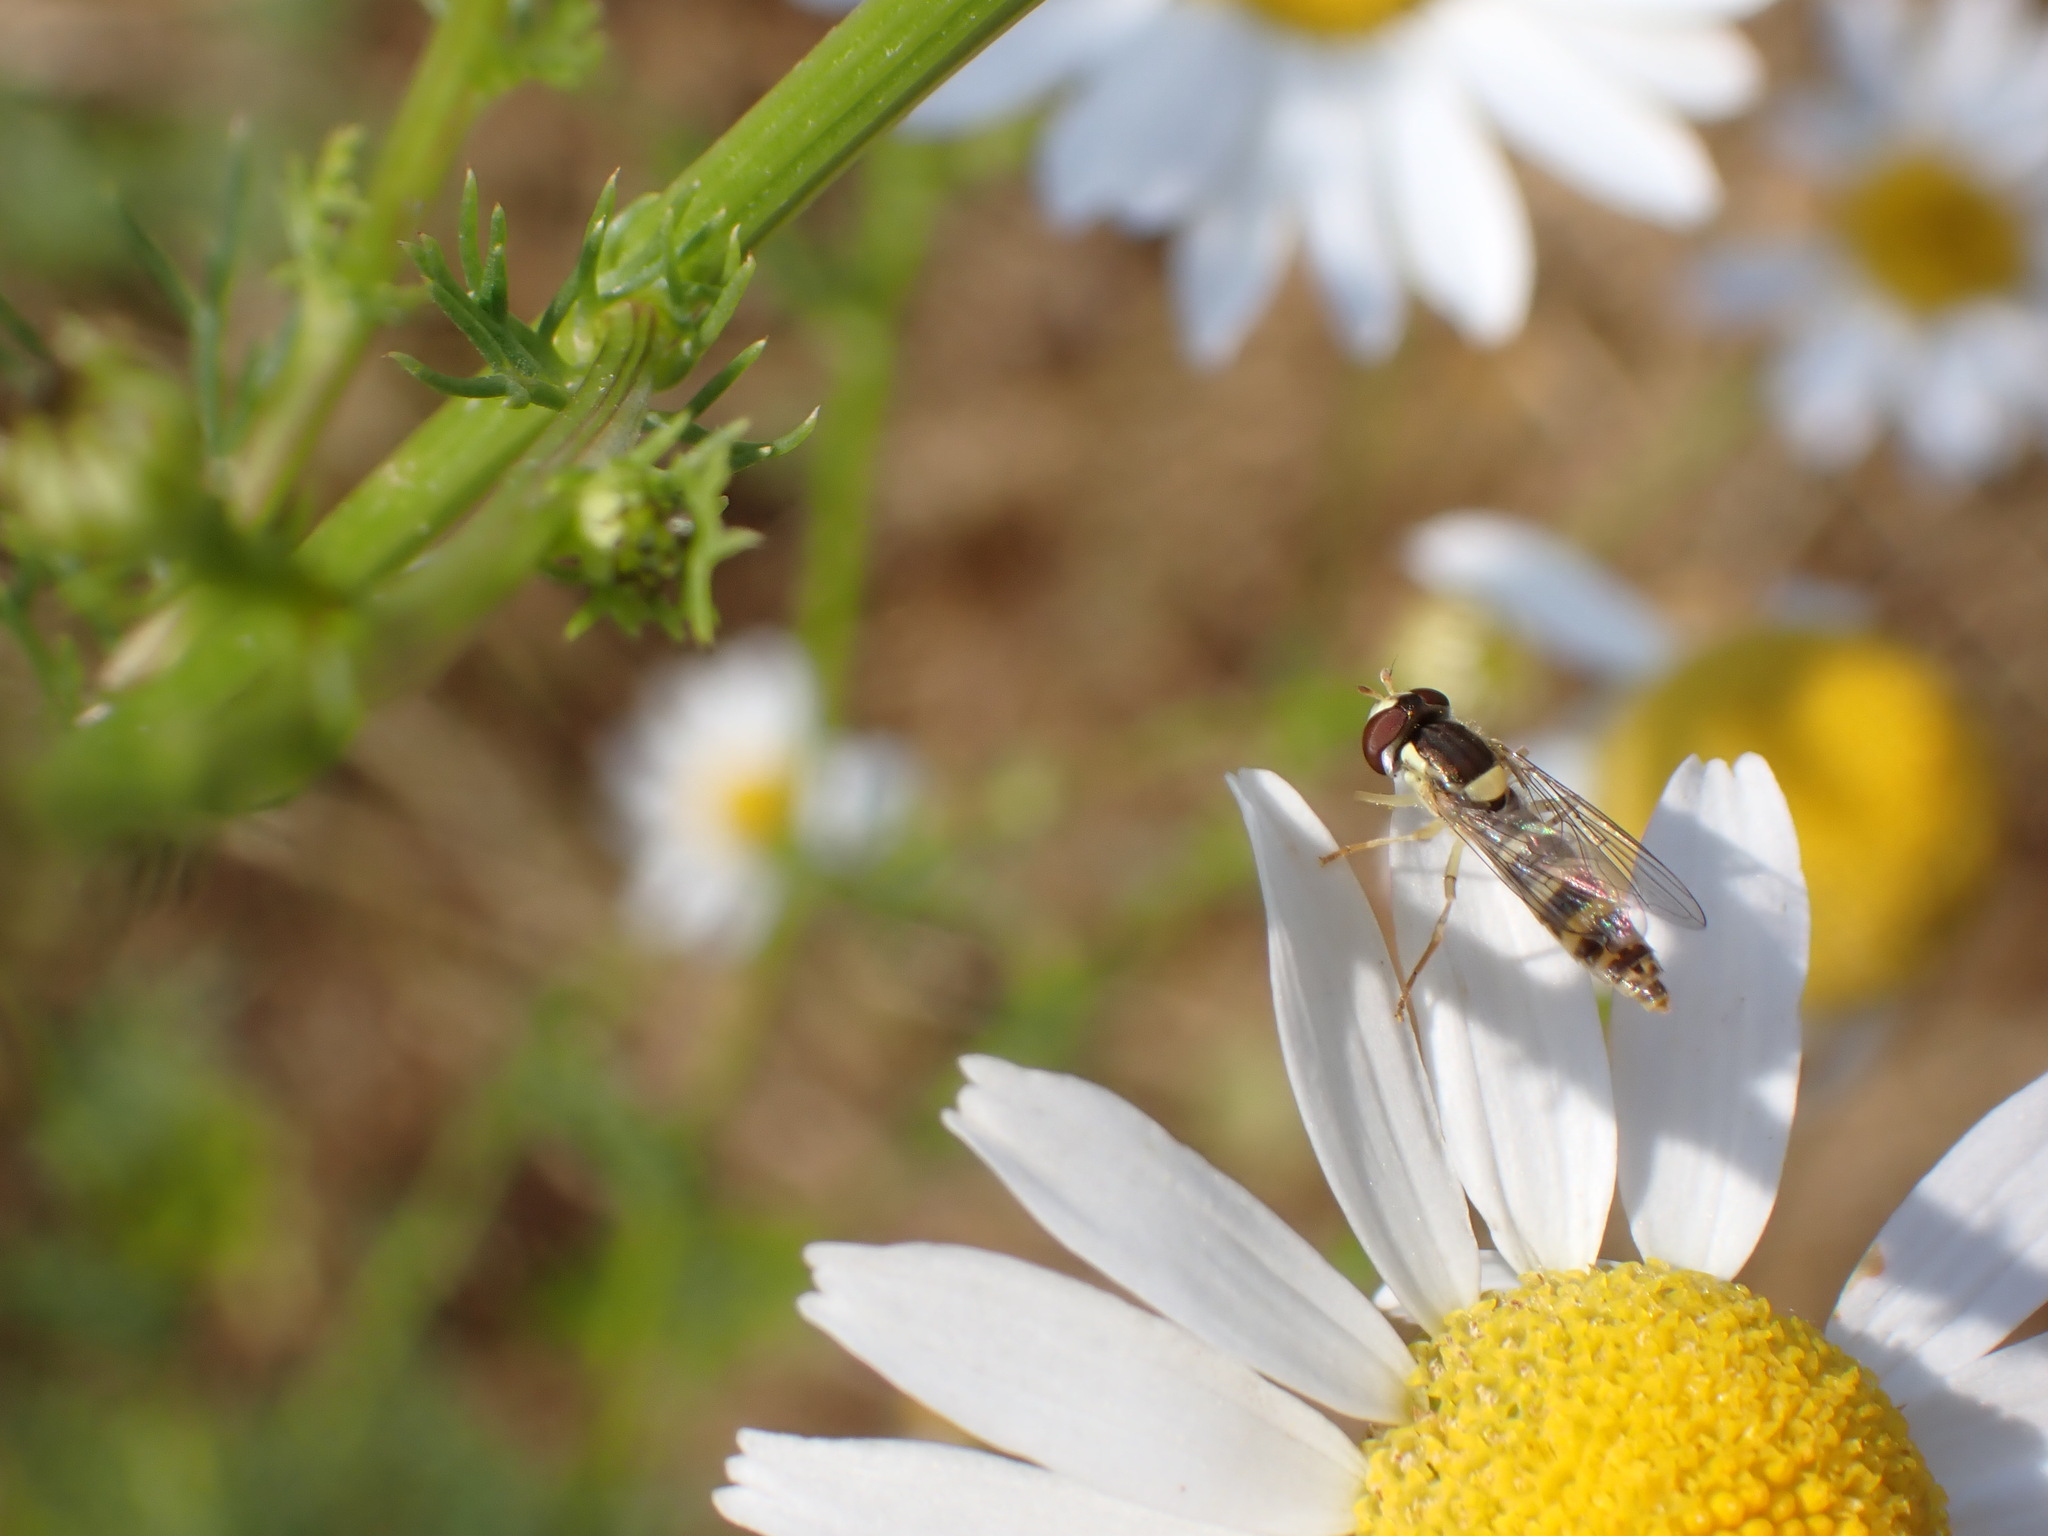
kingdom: Animalia
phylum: Arthropoda
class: Insecta
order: Diptera
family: Syrphidae
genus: Sphaerophoria
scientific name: Sphaerophoria
